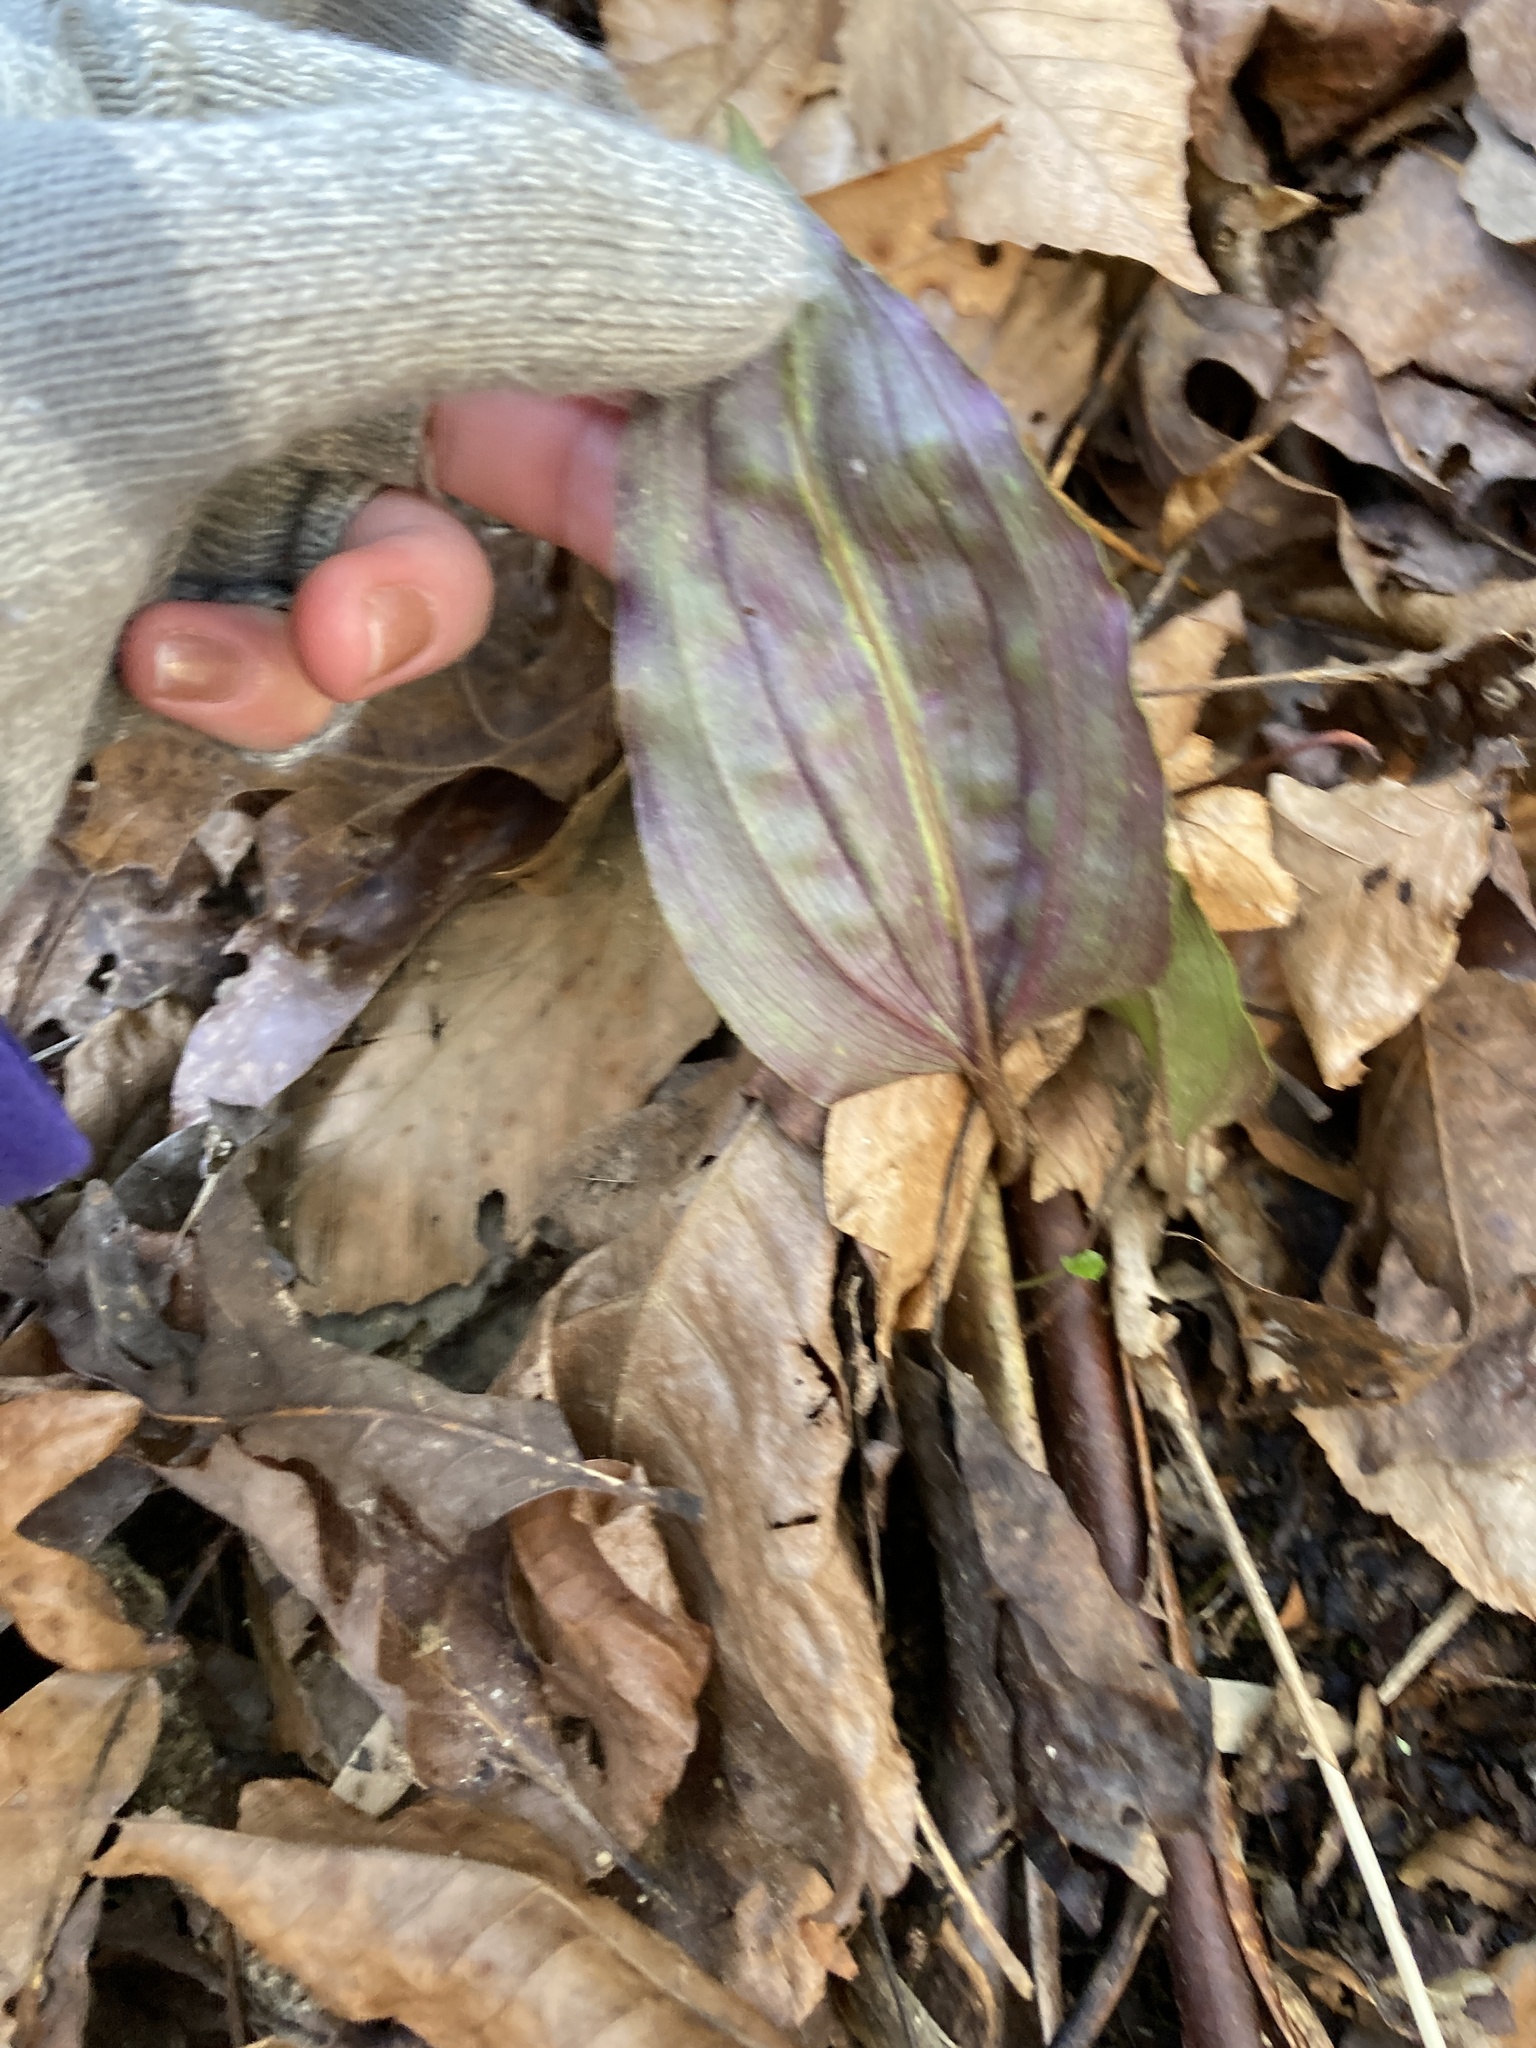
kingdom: Plantae
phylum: Tracheophyta
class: Liliopsida
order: Asparagales
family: Orchidaceae
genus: Tipularia
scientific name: Tipularia discolor
